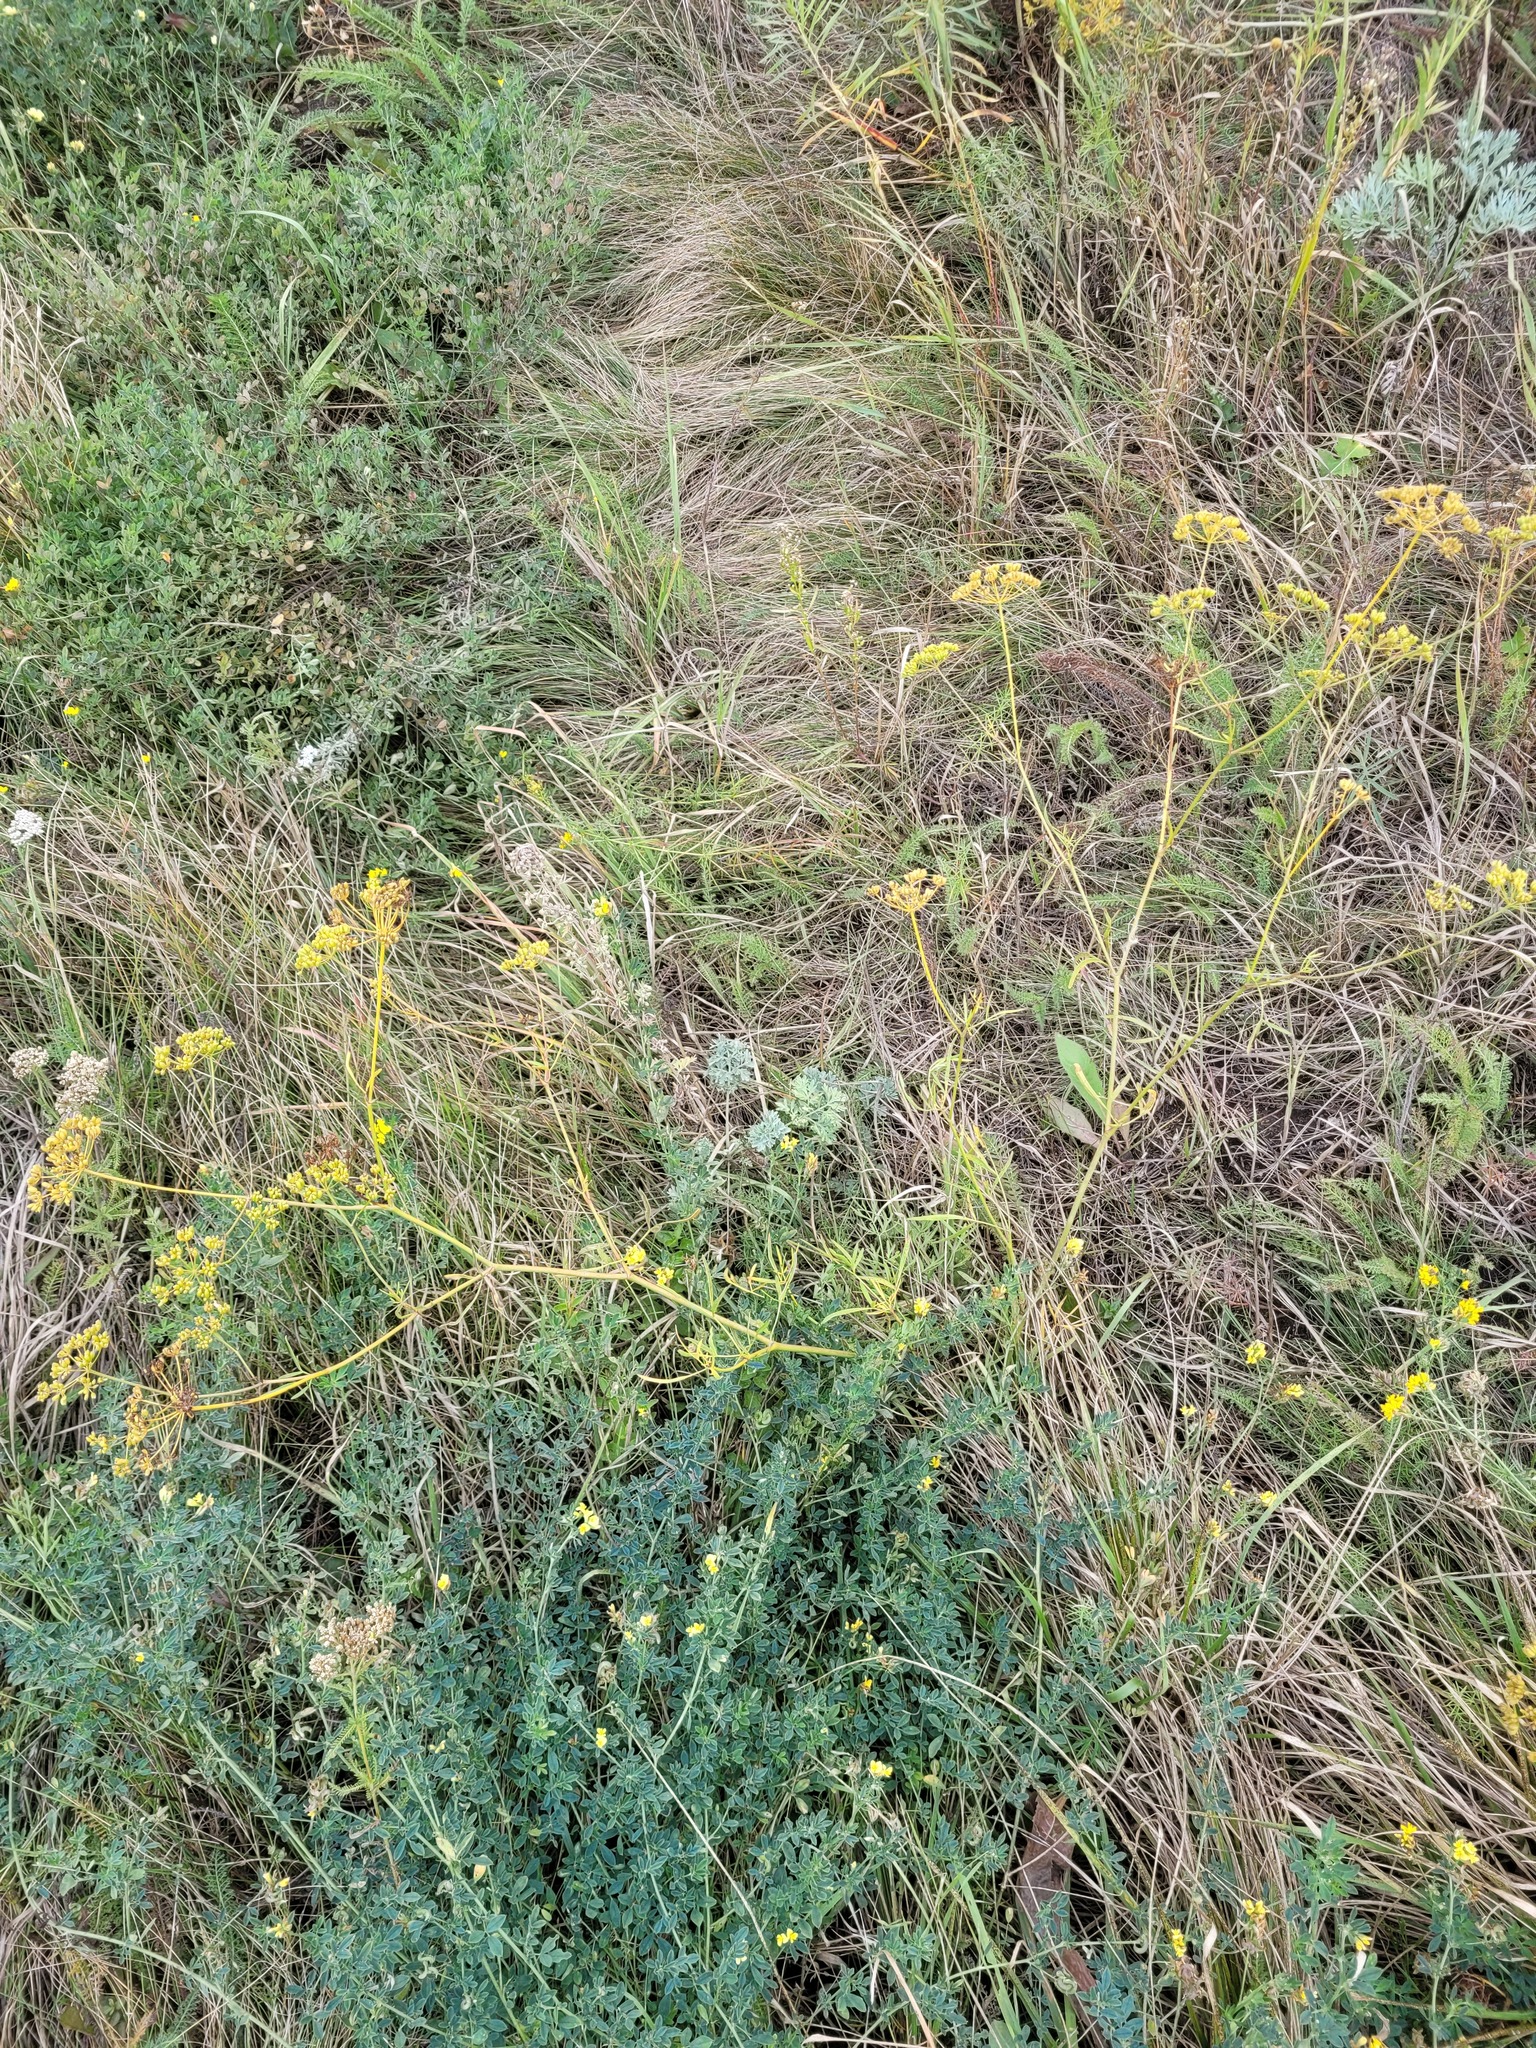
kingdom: Plantae
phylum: Tracheophyta
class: Magnoliopsida
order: Apiales
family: Apiaceae
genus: Peucedanum
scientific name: Peucedanum ruthenicum
